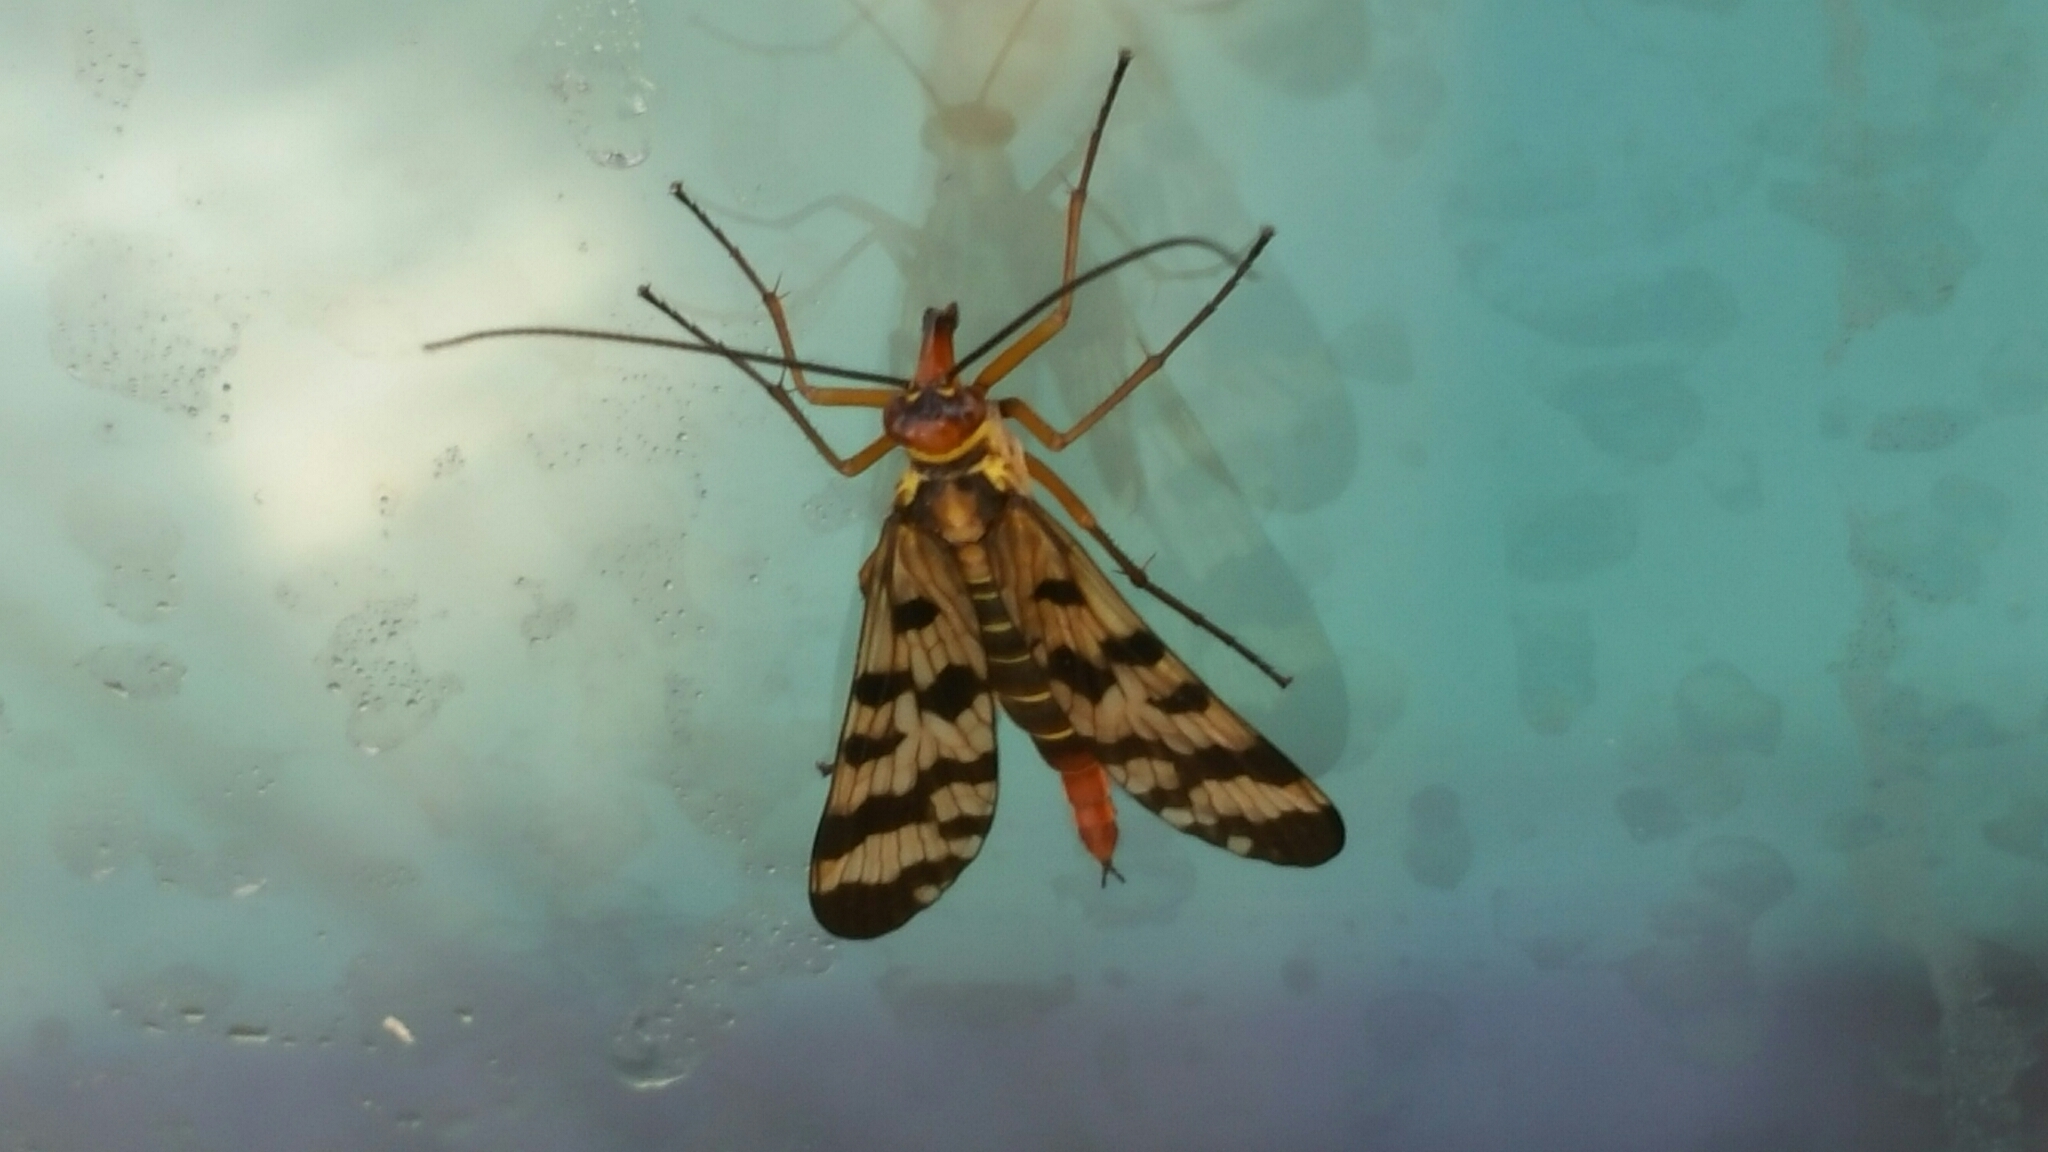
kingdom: Animalia
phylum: Arthropoda
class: Insecta
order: Mecoptera
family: Panorpidae
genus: Panorpa
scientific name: Panorpa meridionalis
